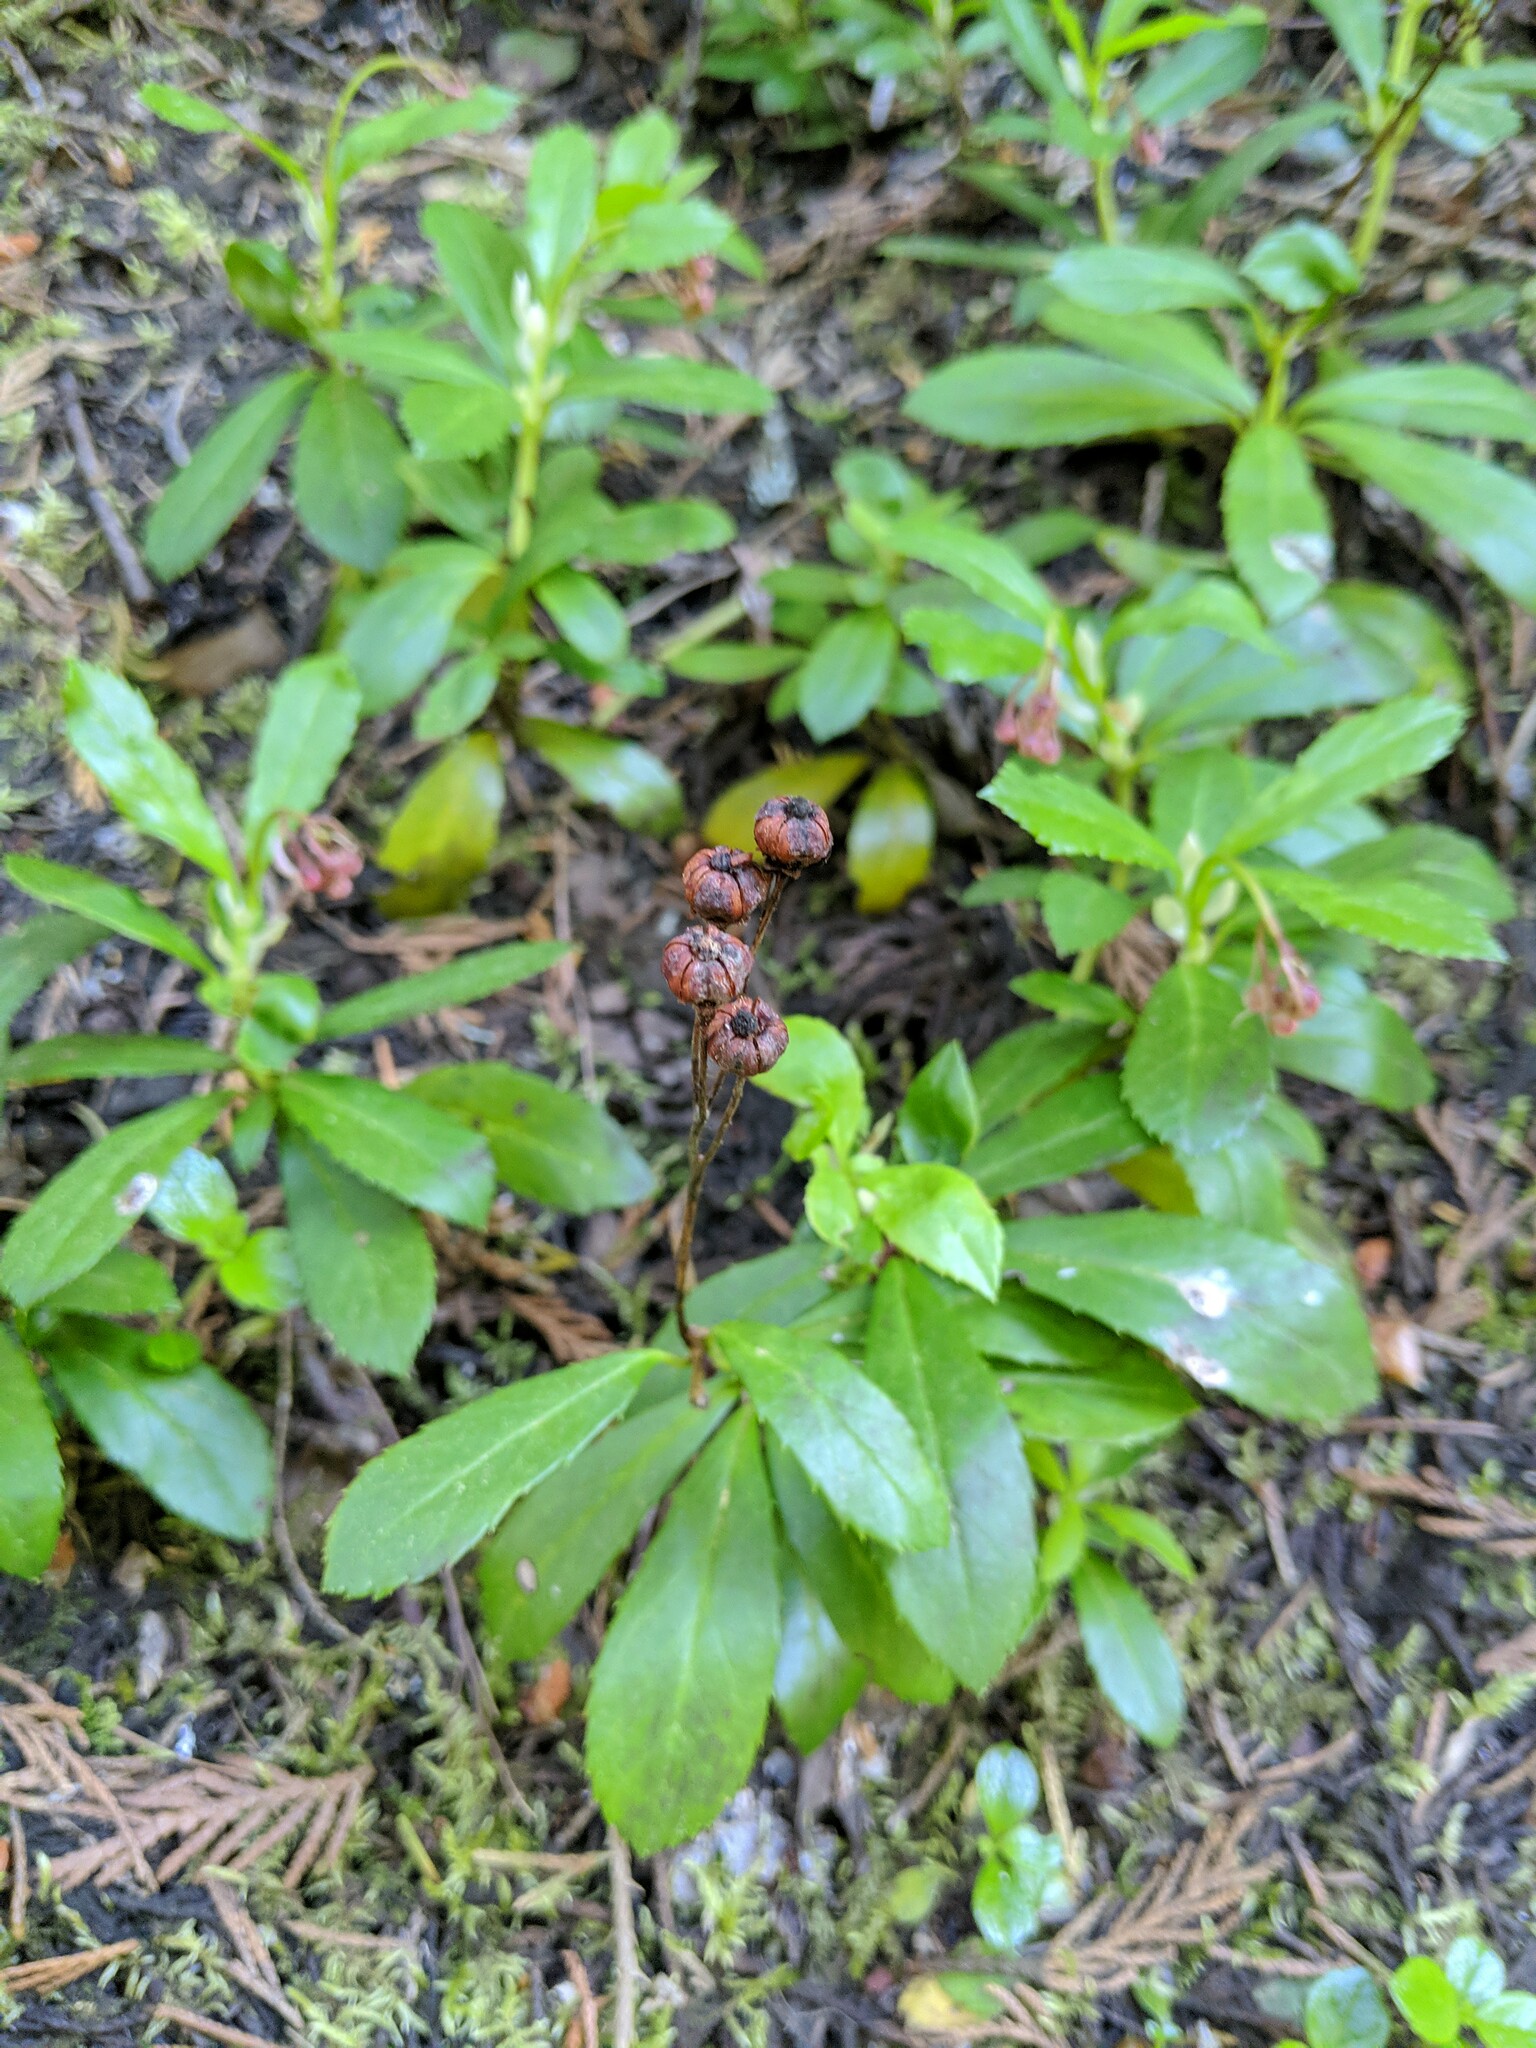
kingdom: Plantae
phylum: Tracheophyta
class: Magnoliopsida
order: Ericales
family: Ericaceae
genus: Chimaphila
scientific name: Chimaphila umbellata
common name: Pipsissewa
